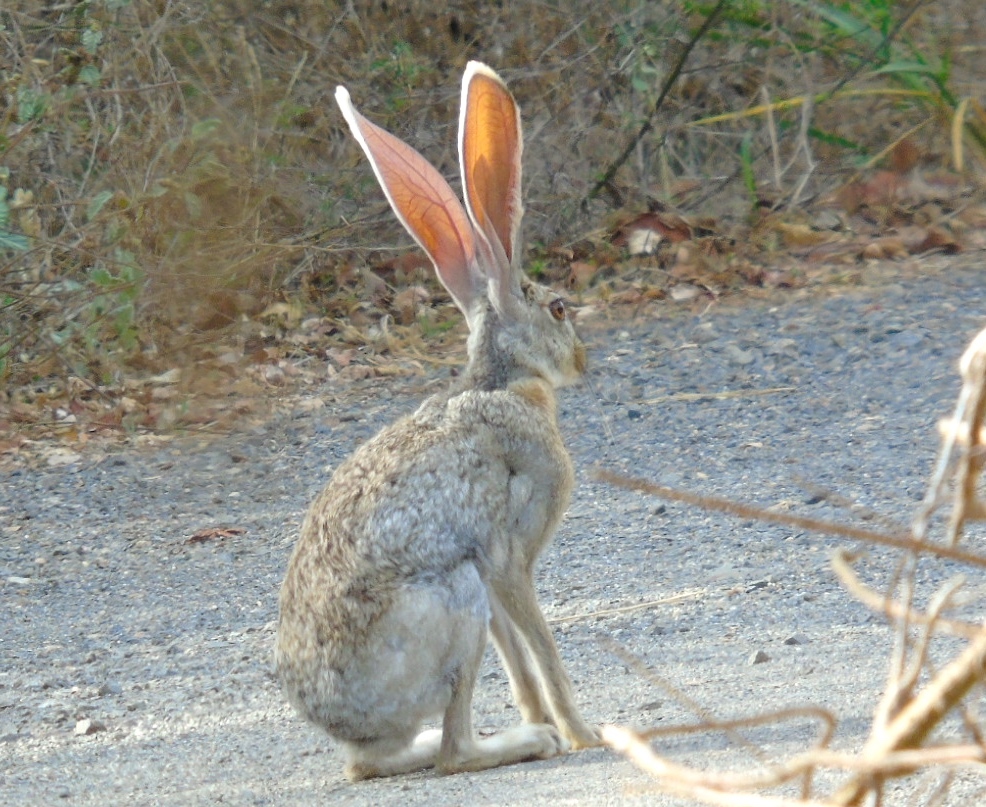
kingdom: Animalia
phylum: Chordata
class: Mammalia
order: Lagomorpha
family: Leporidae
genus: Lepus
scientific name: Lepus alleni
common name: Antelope jackrabbit
